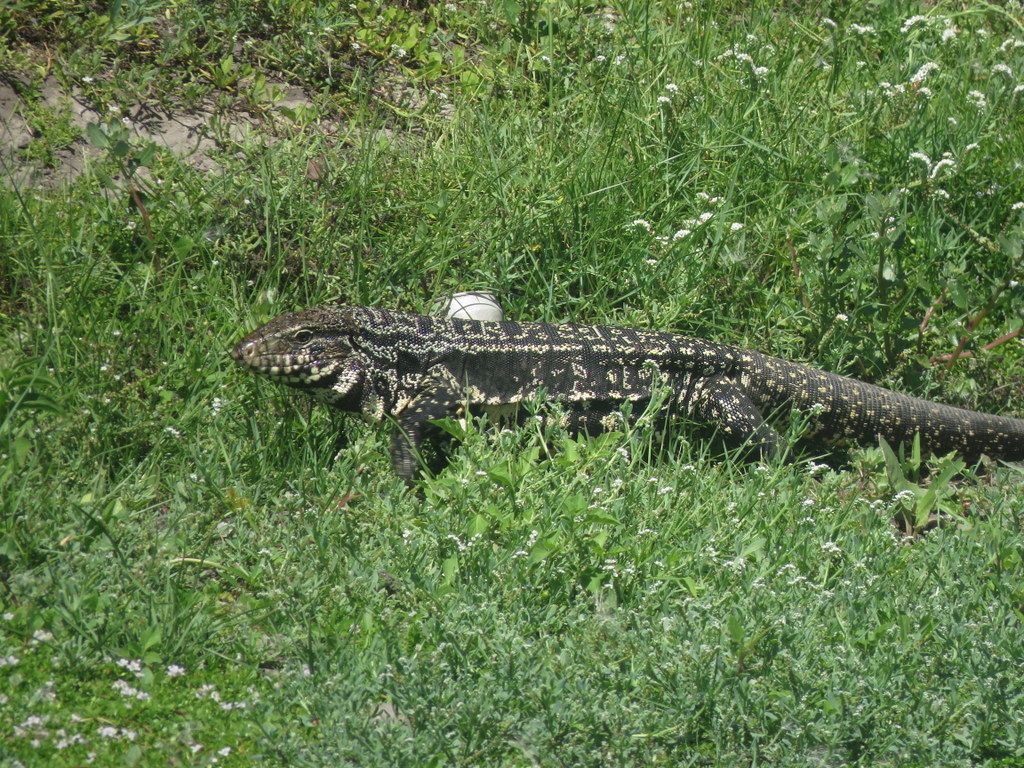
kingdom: Animalia
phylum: Chordata
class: Squamata
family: Teiidae
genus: Salvator
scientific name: Salvator merianae
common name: Argentine black and white tegu
